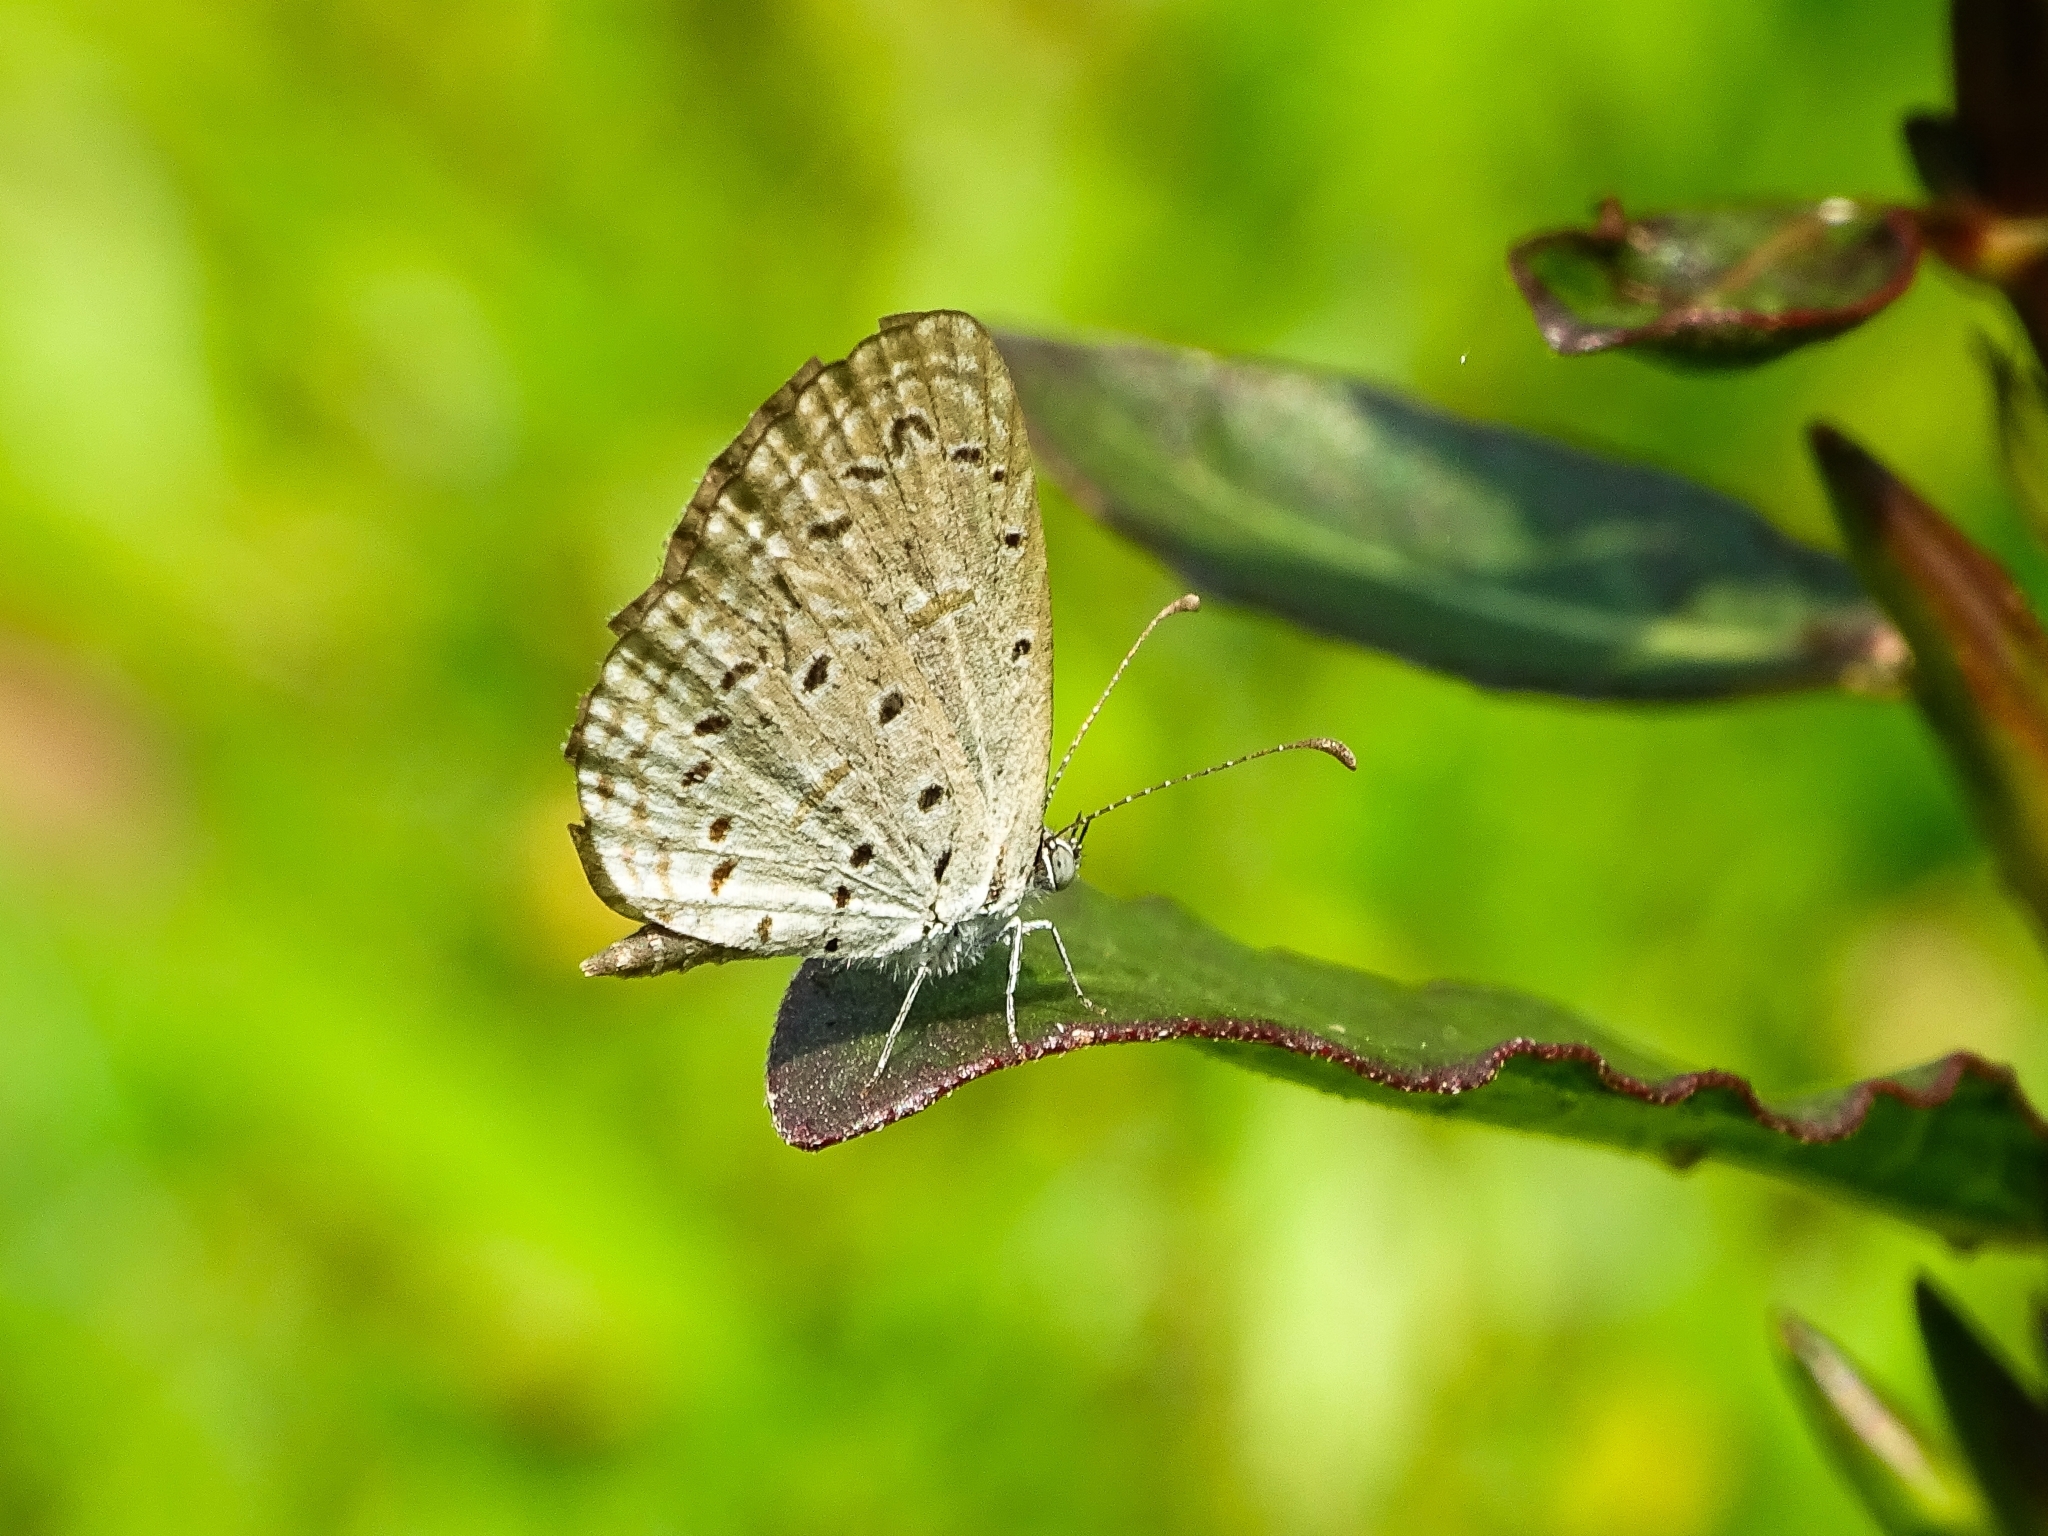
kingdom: Animalia
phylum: Arthropoda
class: Insecta
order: Lepidoptera
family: Lycaenidae
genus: Zizula
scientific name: Zizula hylax
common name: Gaika blue
